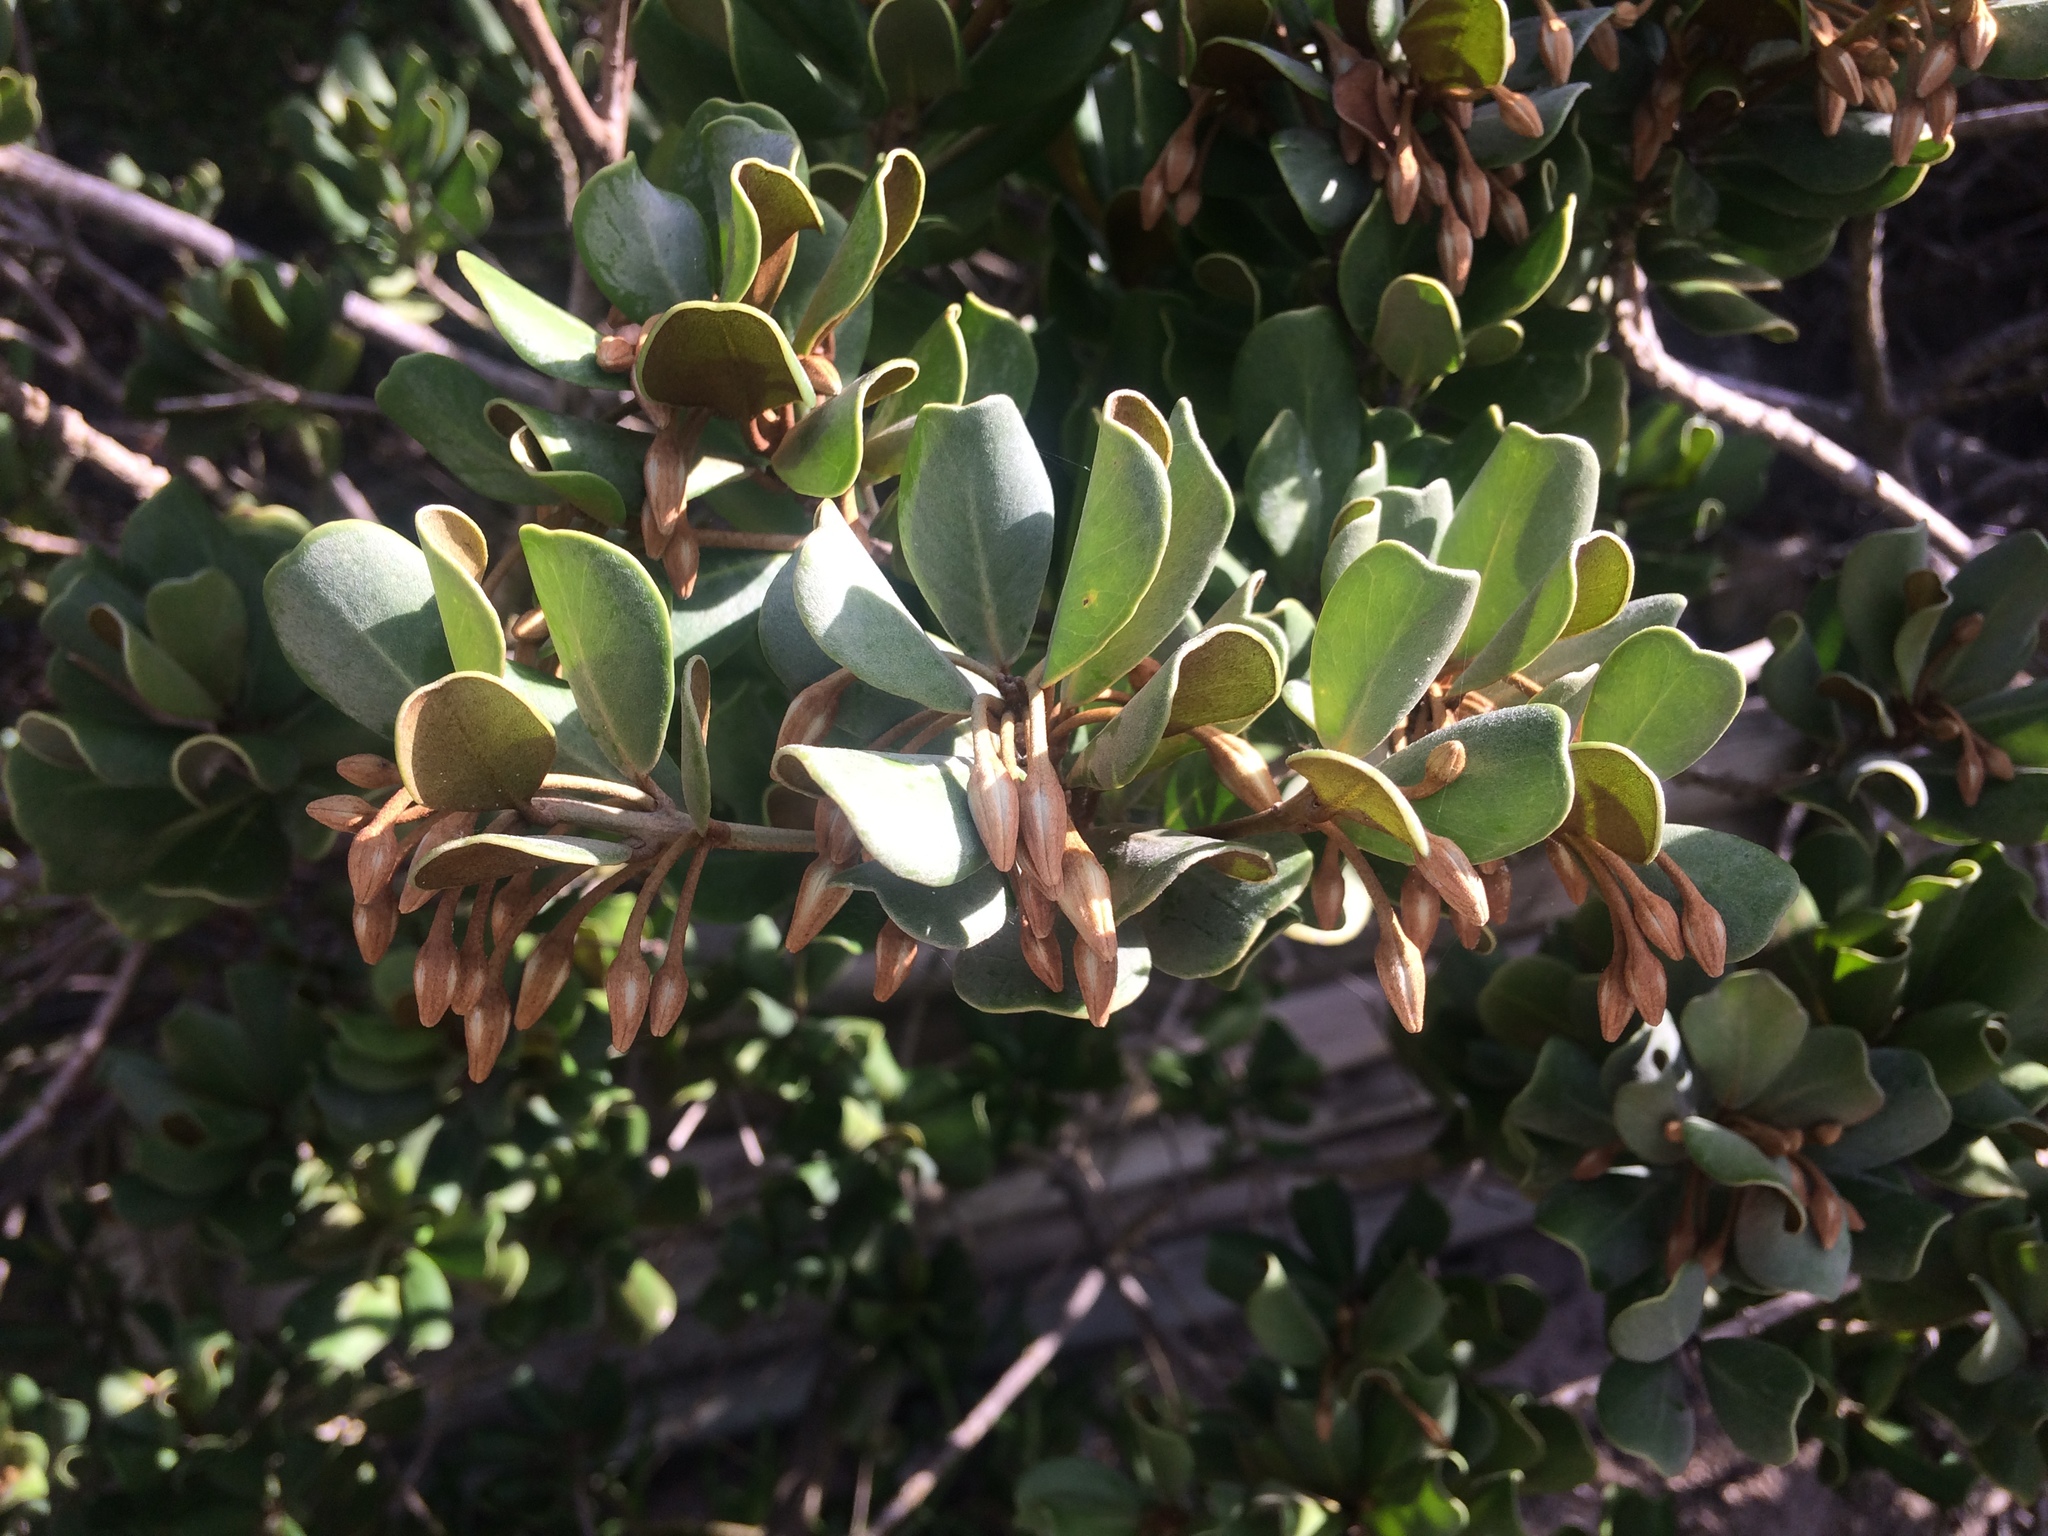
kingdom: Plantae
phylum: Tracheophyta
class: Magnoliopsida
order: Ericales
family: Sapotaceae
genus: Mimusops
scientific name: Mimusops caffra
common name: Coastal red milkwood
